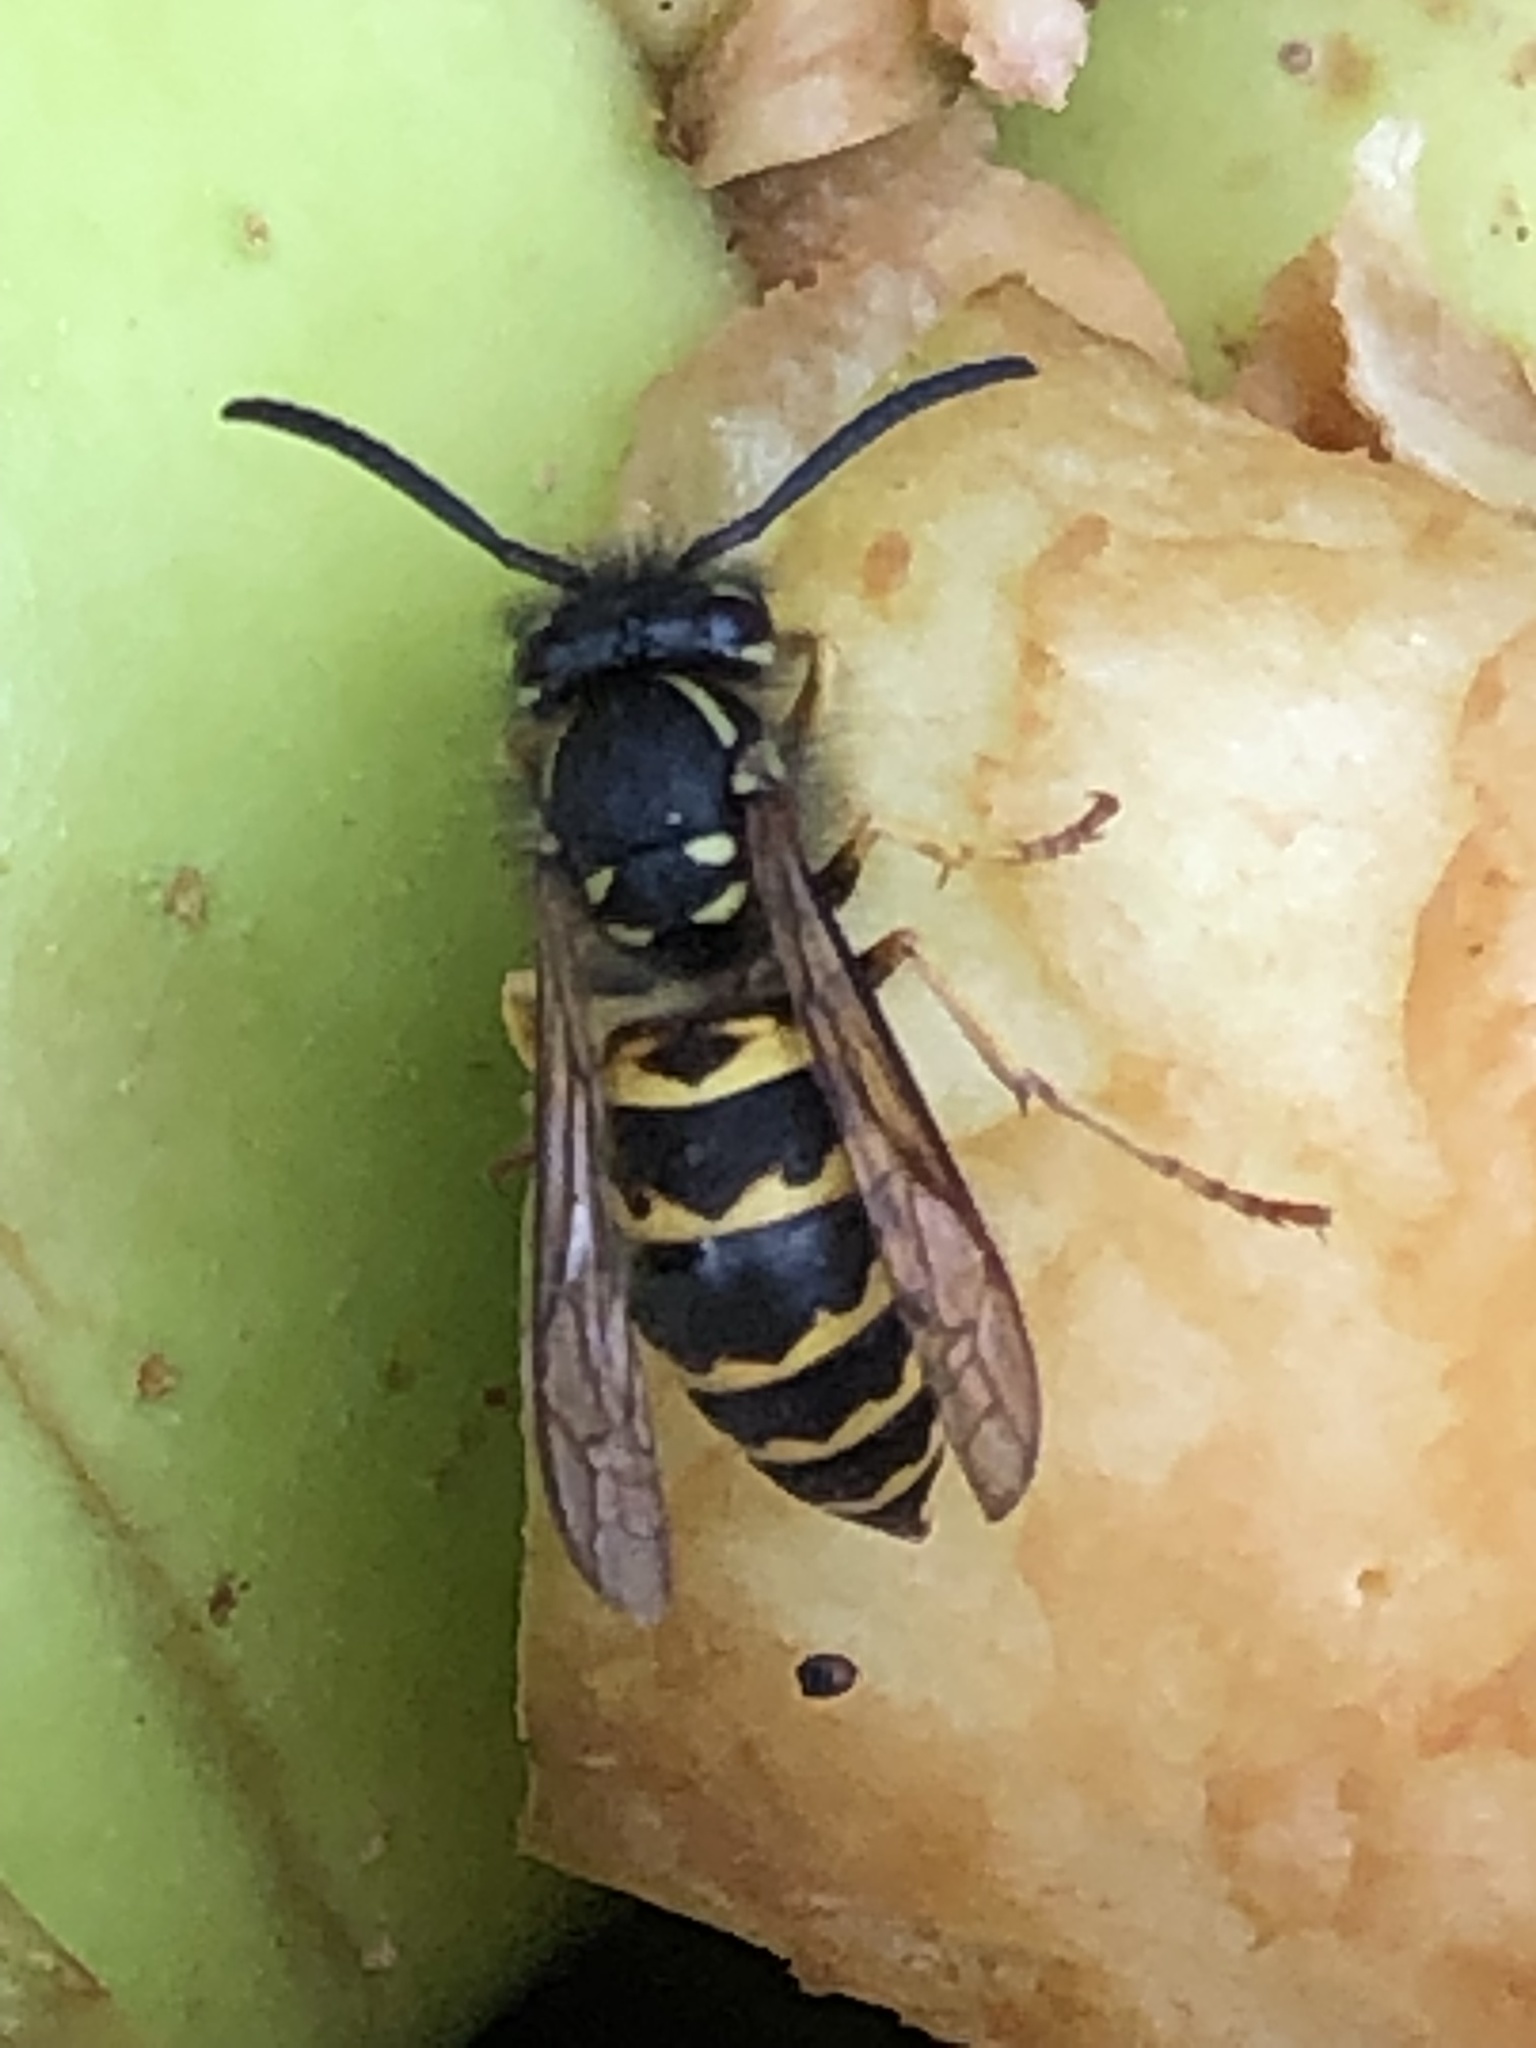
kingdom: Animalia
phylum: Arthropoda
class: Insecta
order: Hymenoptera
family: Vespidae
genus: Vespula
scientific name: Vespula alascensis
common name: Alaska yellowjacket
